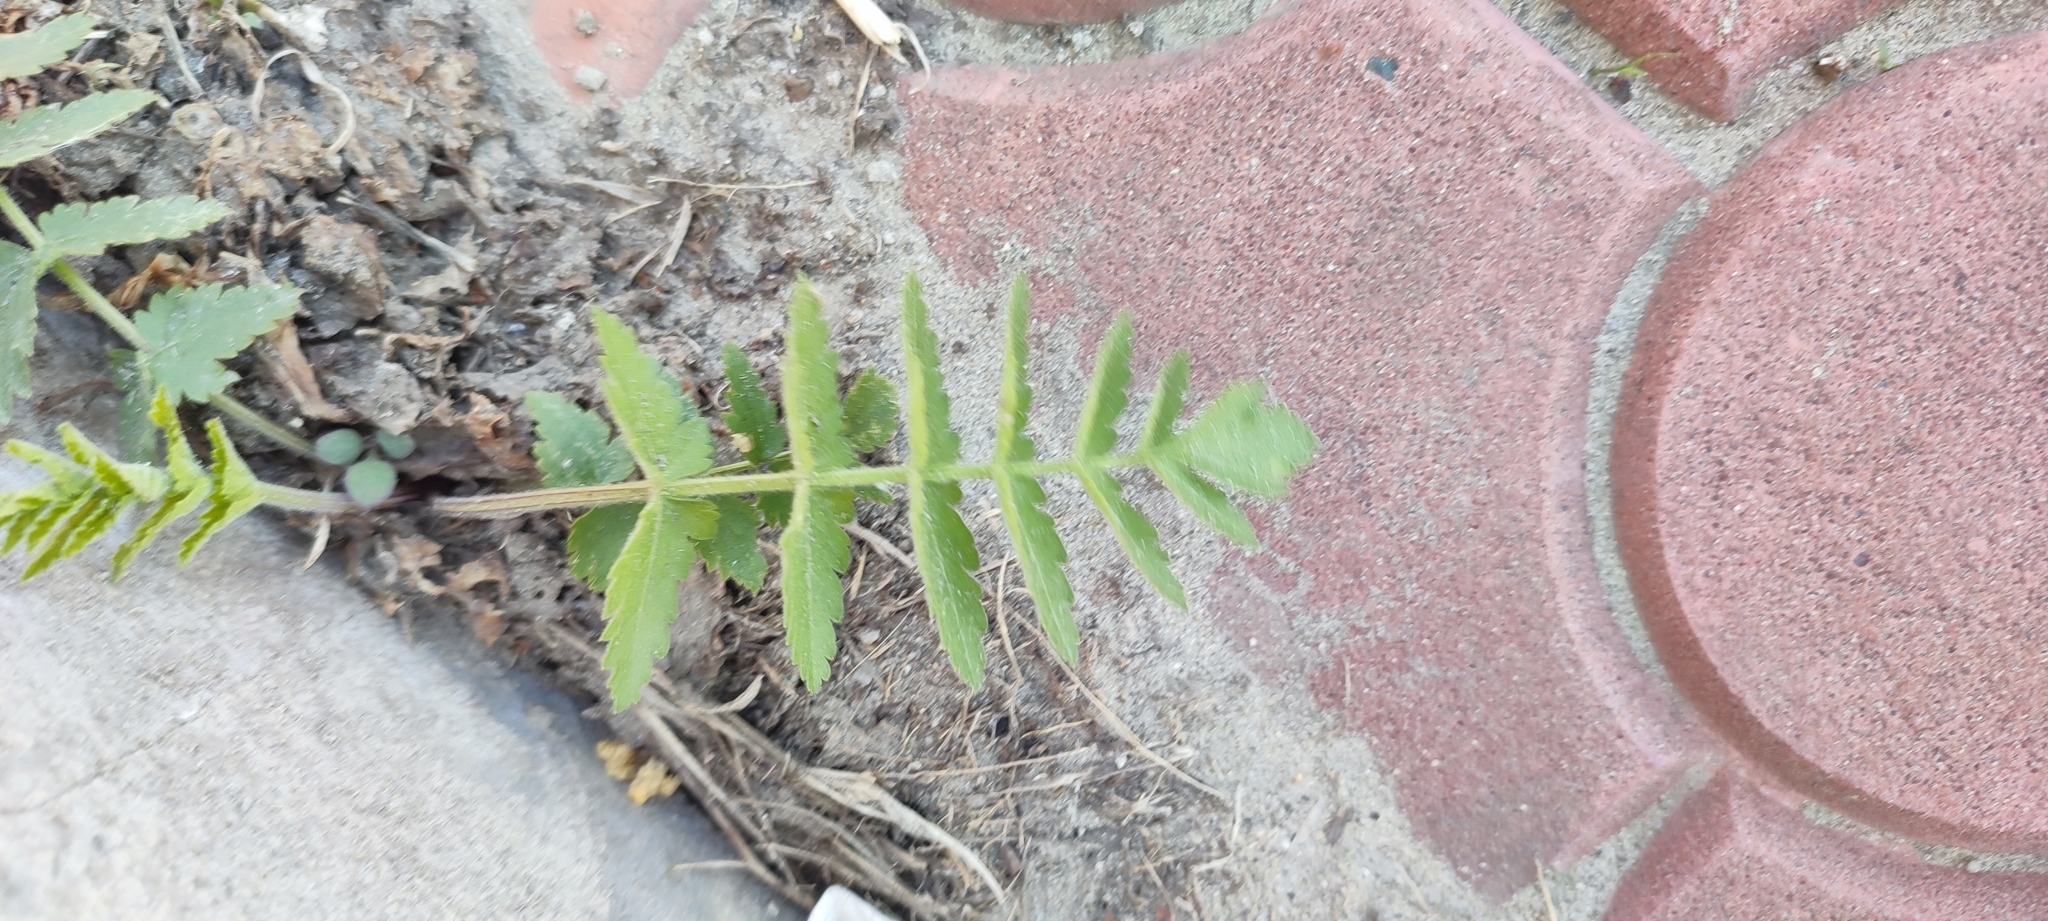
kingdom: Plantae
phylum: Tracheophyta
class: Magnoliopsida
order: Apiales
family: Apiaceae
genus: Pastinaca
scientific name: Pastinaca sativa
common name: Wild parsnip
